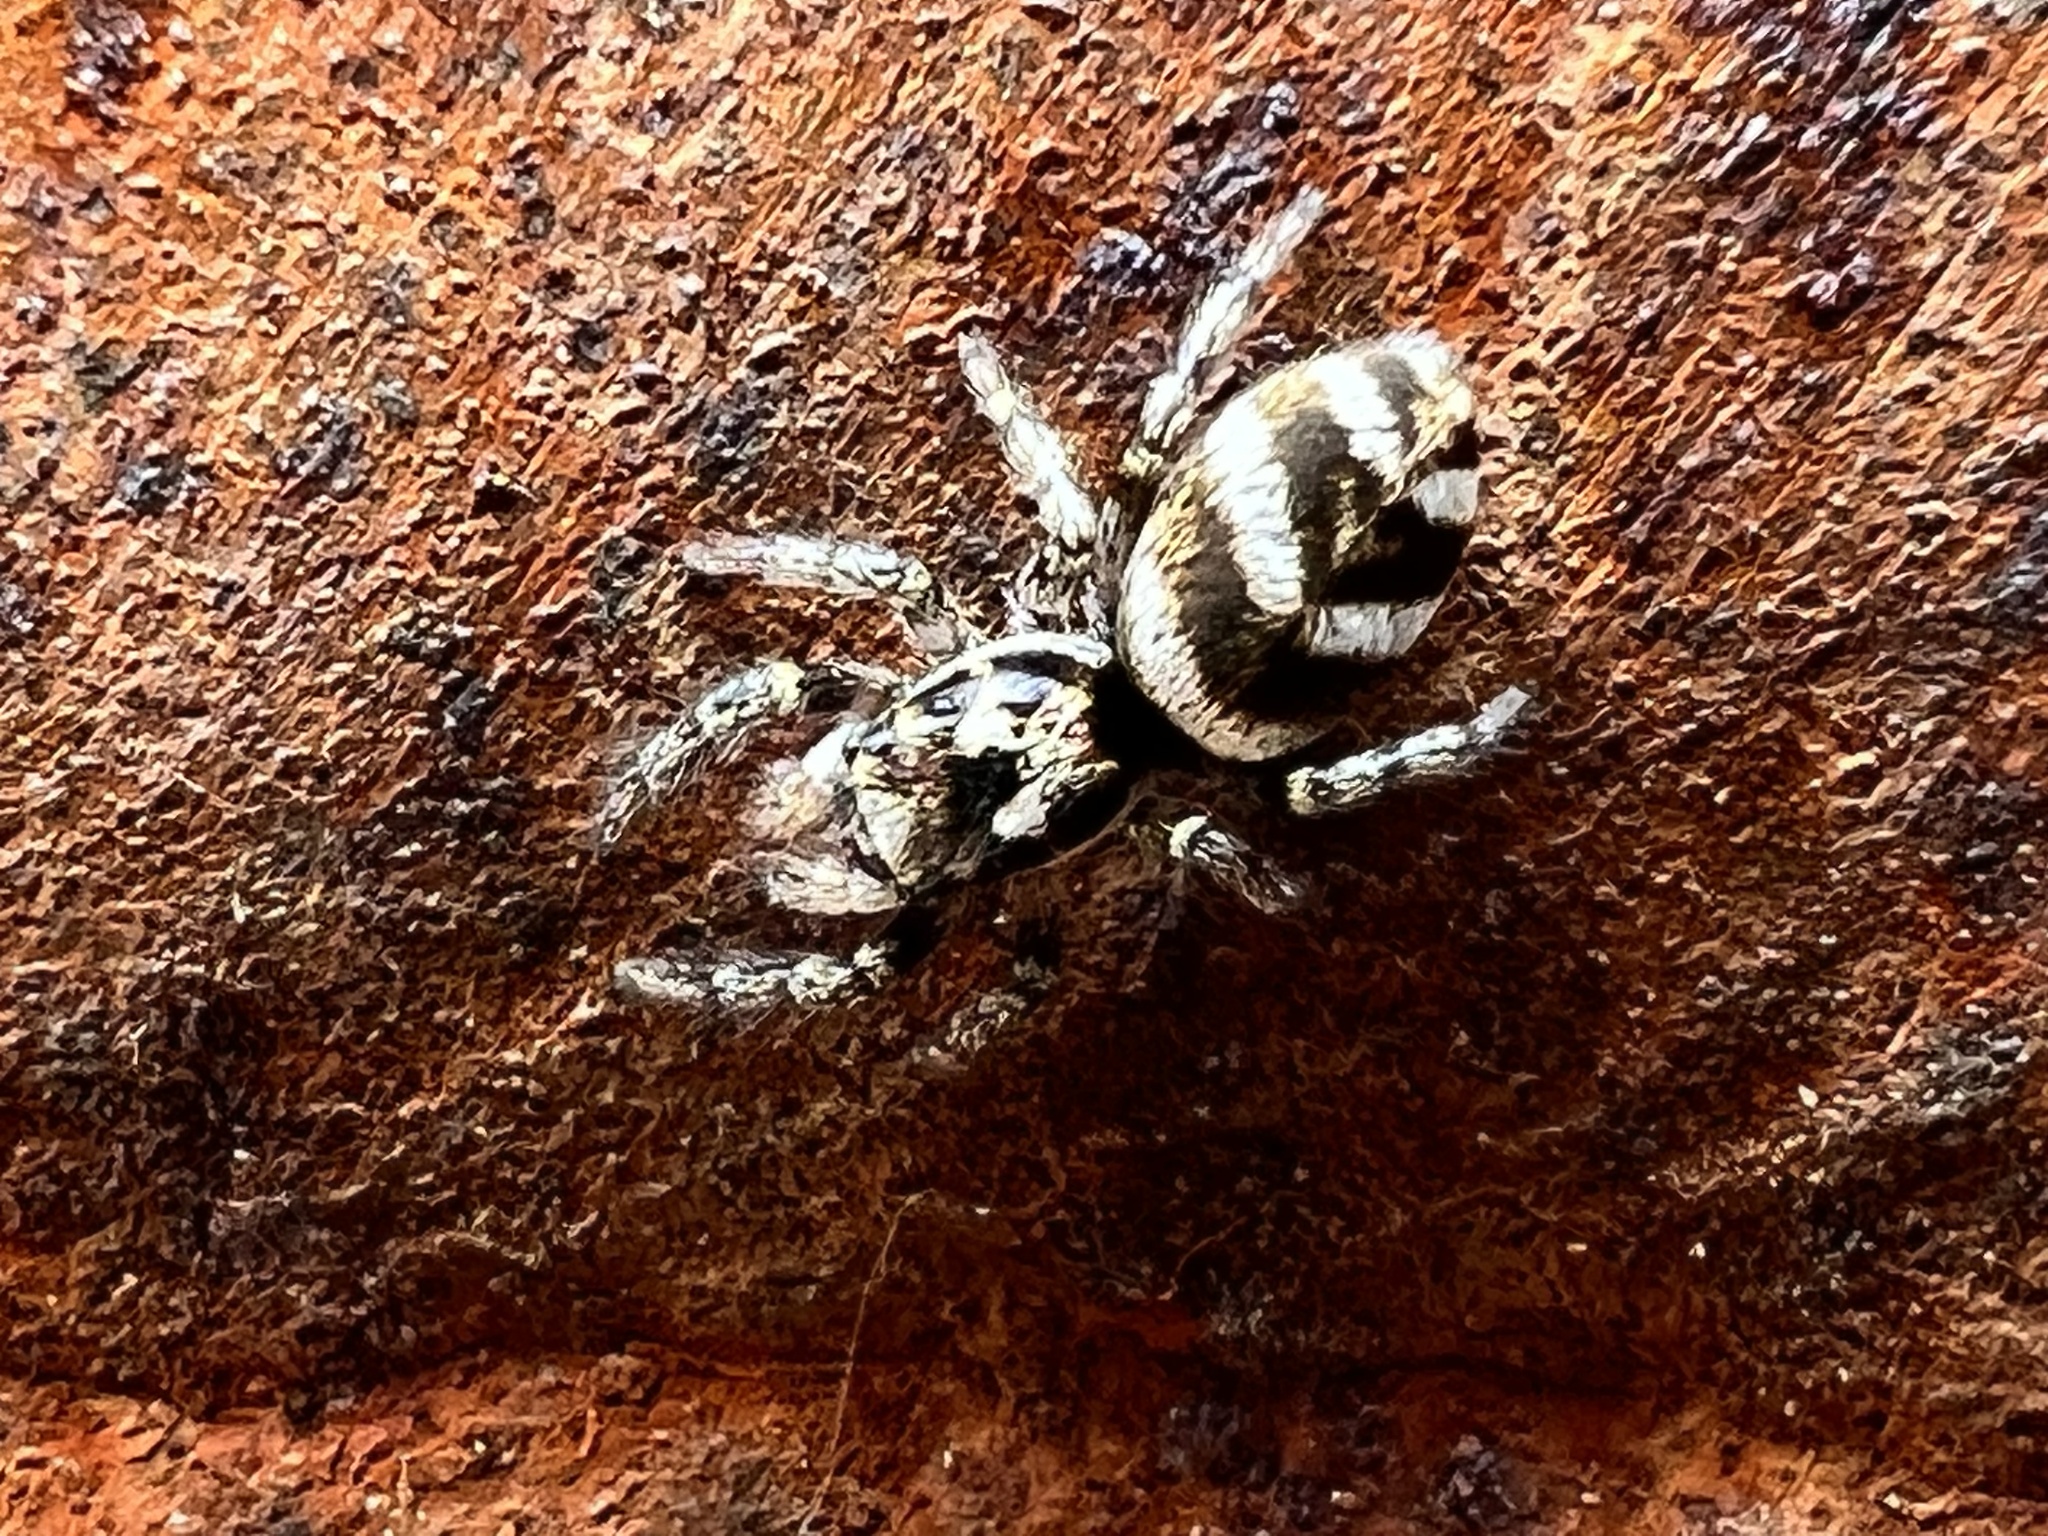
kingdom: Animalia
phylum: Arthropoda
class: Arachnida
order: Araneae
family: Salticidae
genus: Salticus
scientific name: Salticus scenicus
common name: Zebra jumper
